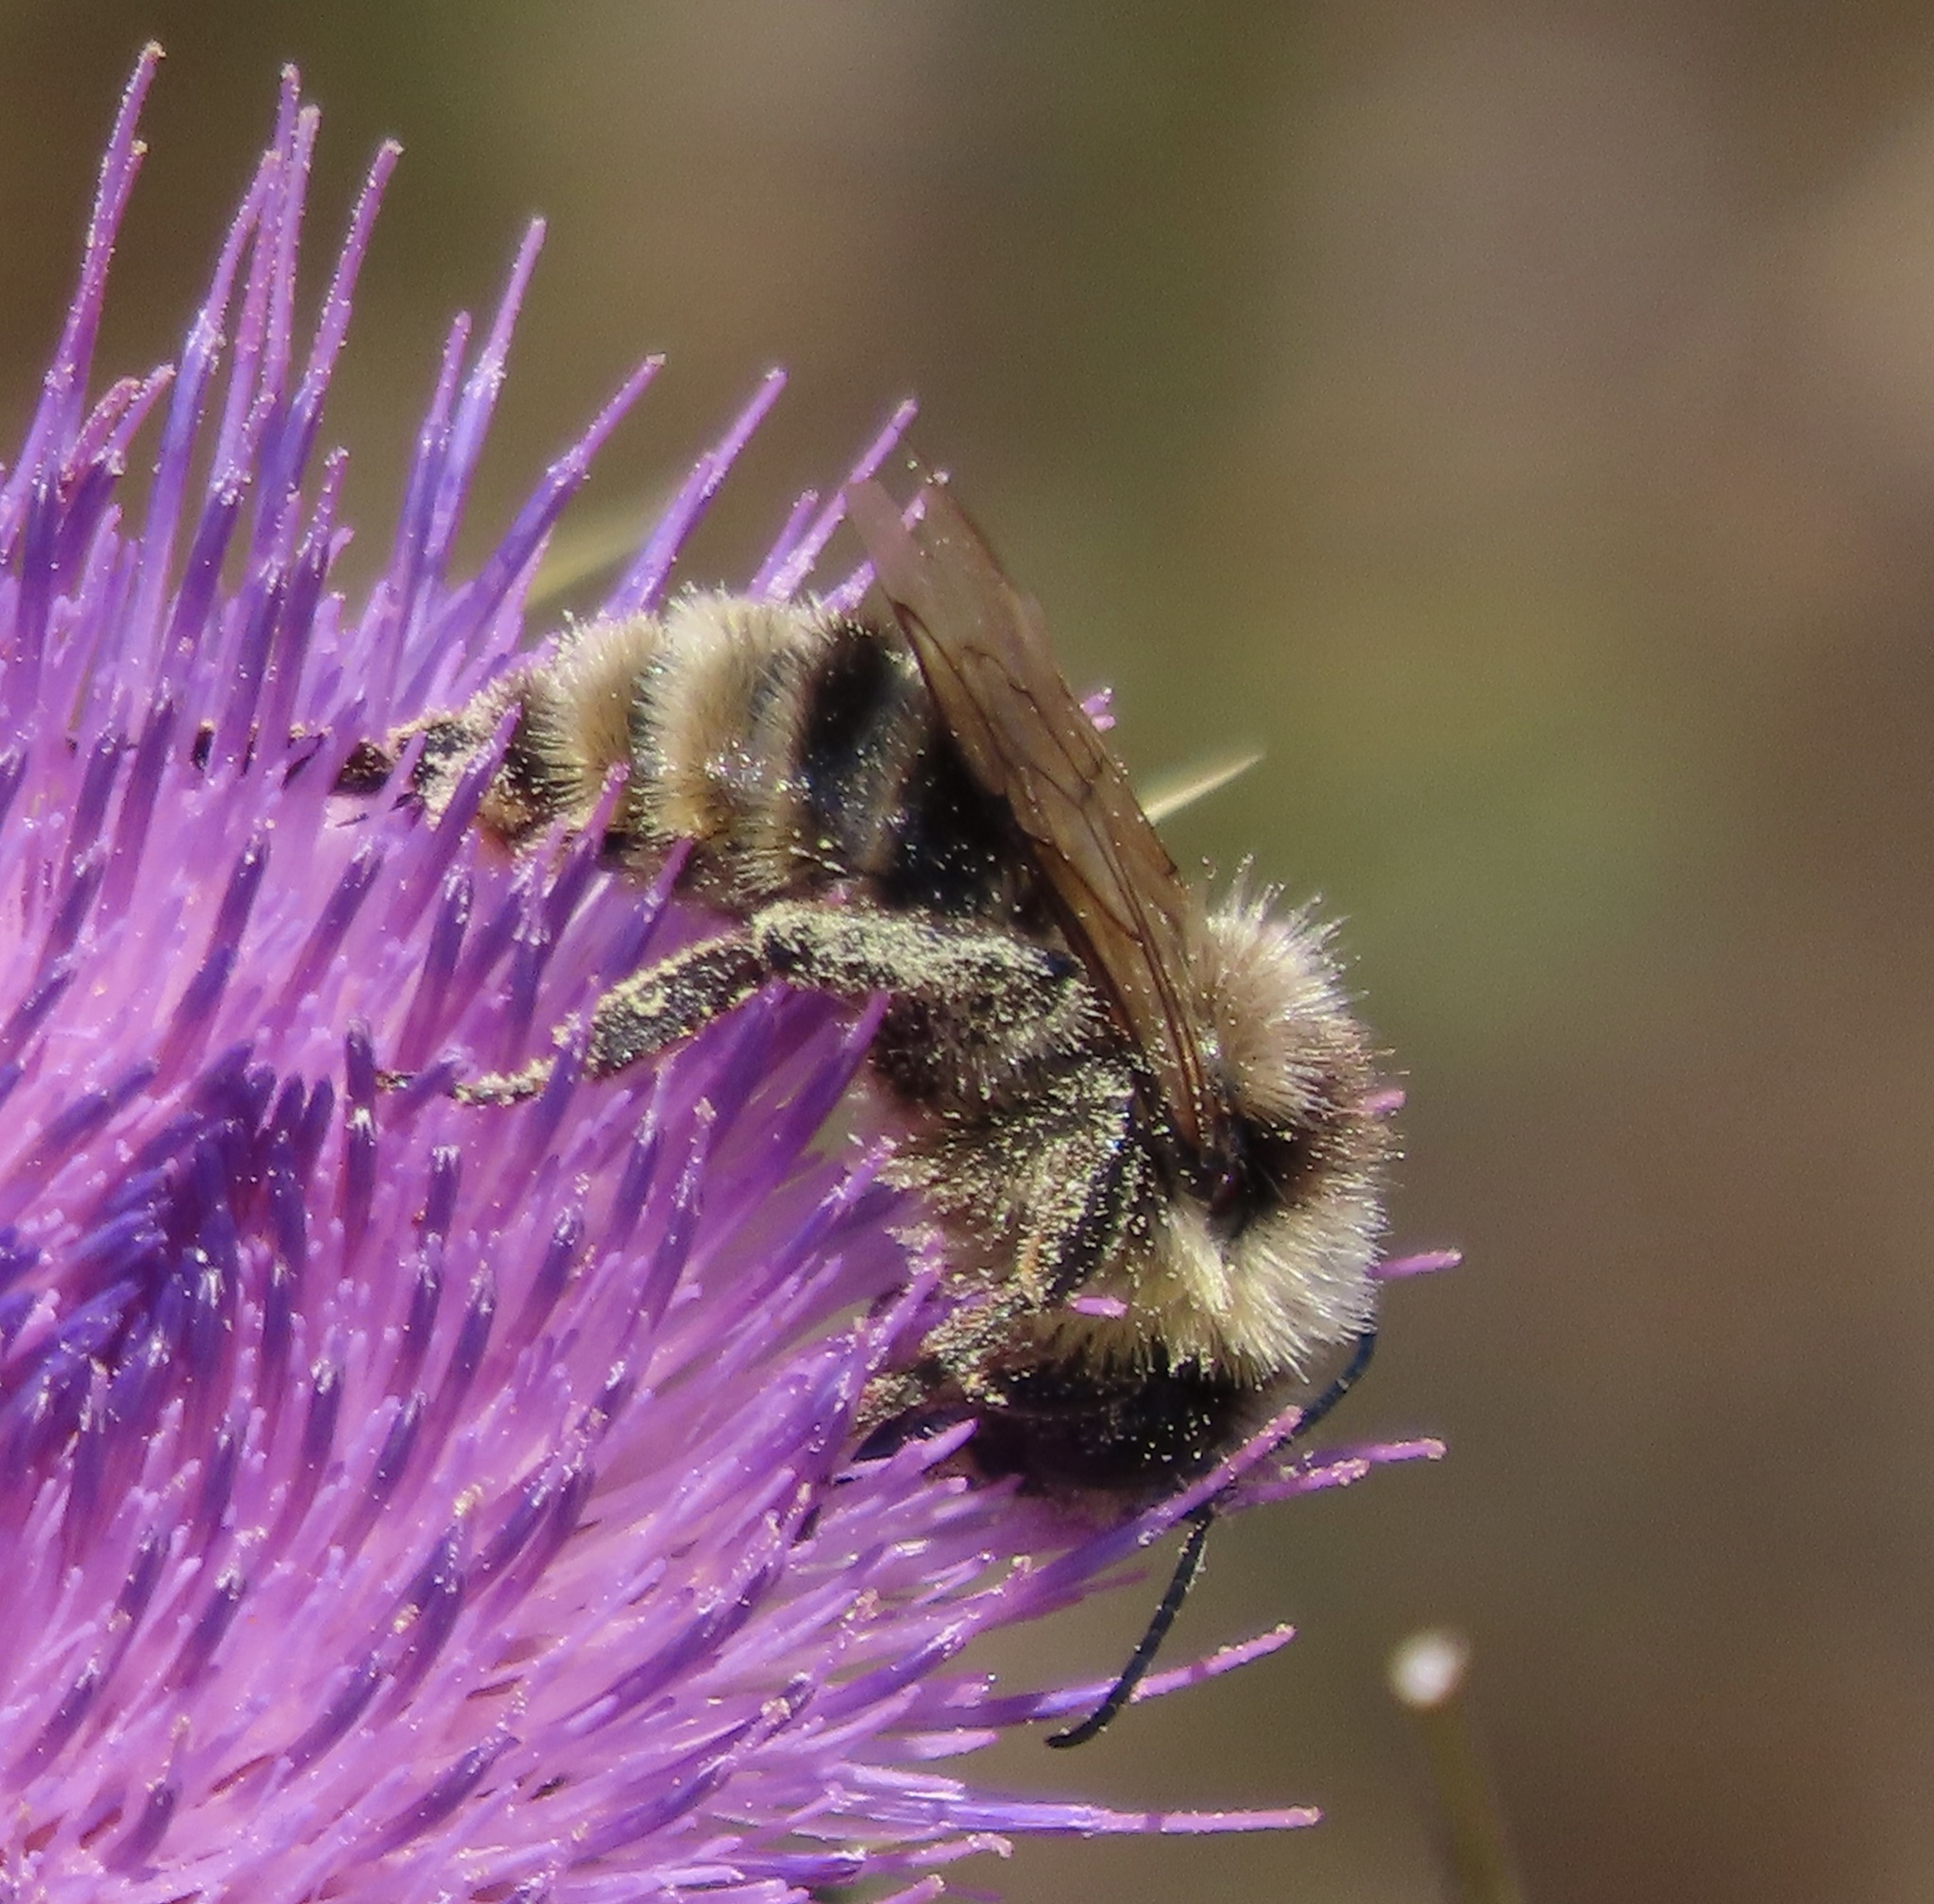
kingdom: Animalia
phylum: Arthropoda
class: Insecta
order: Hymenoptera
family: Apidae
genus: Bombus
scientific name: Bombus californicus
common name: California bumble bee
